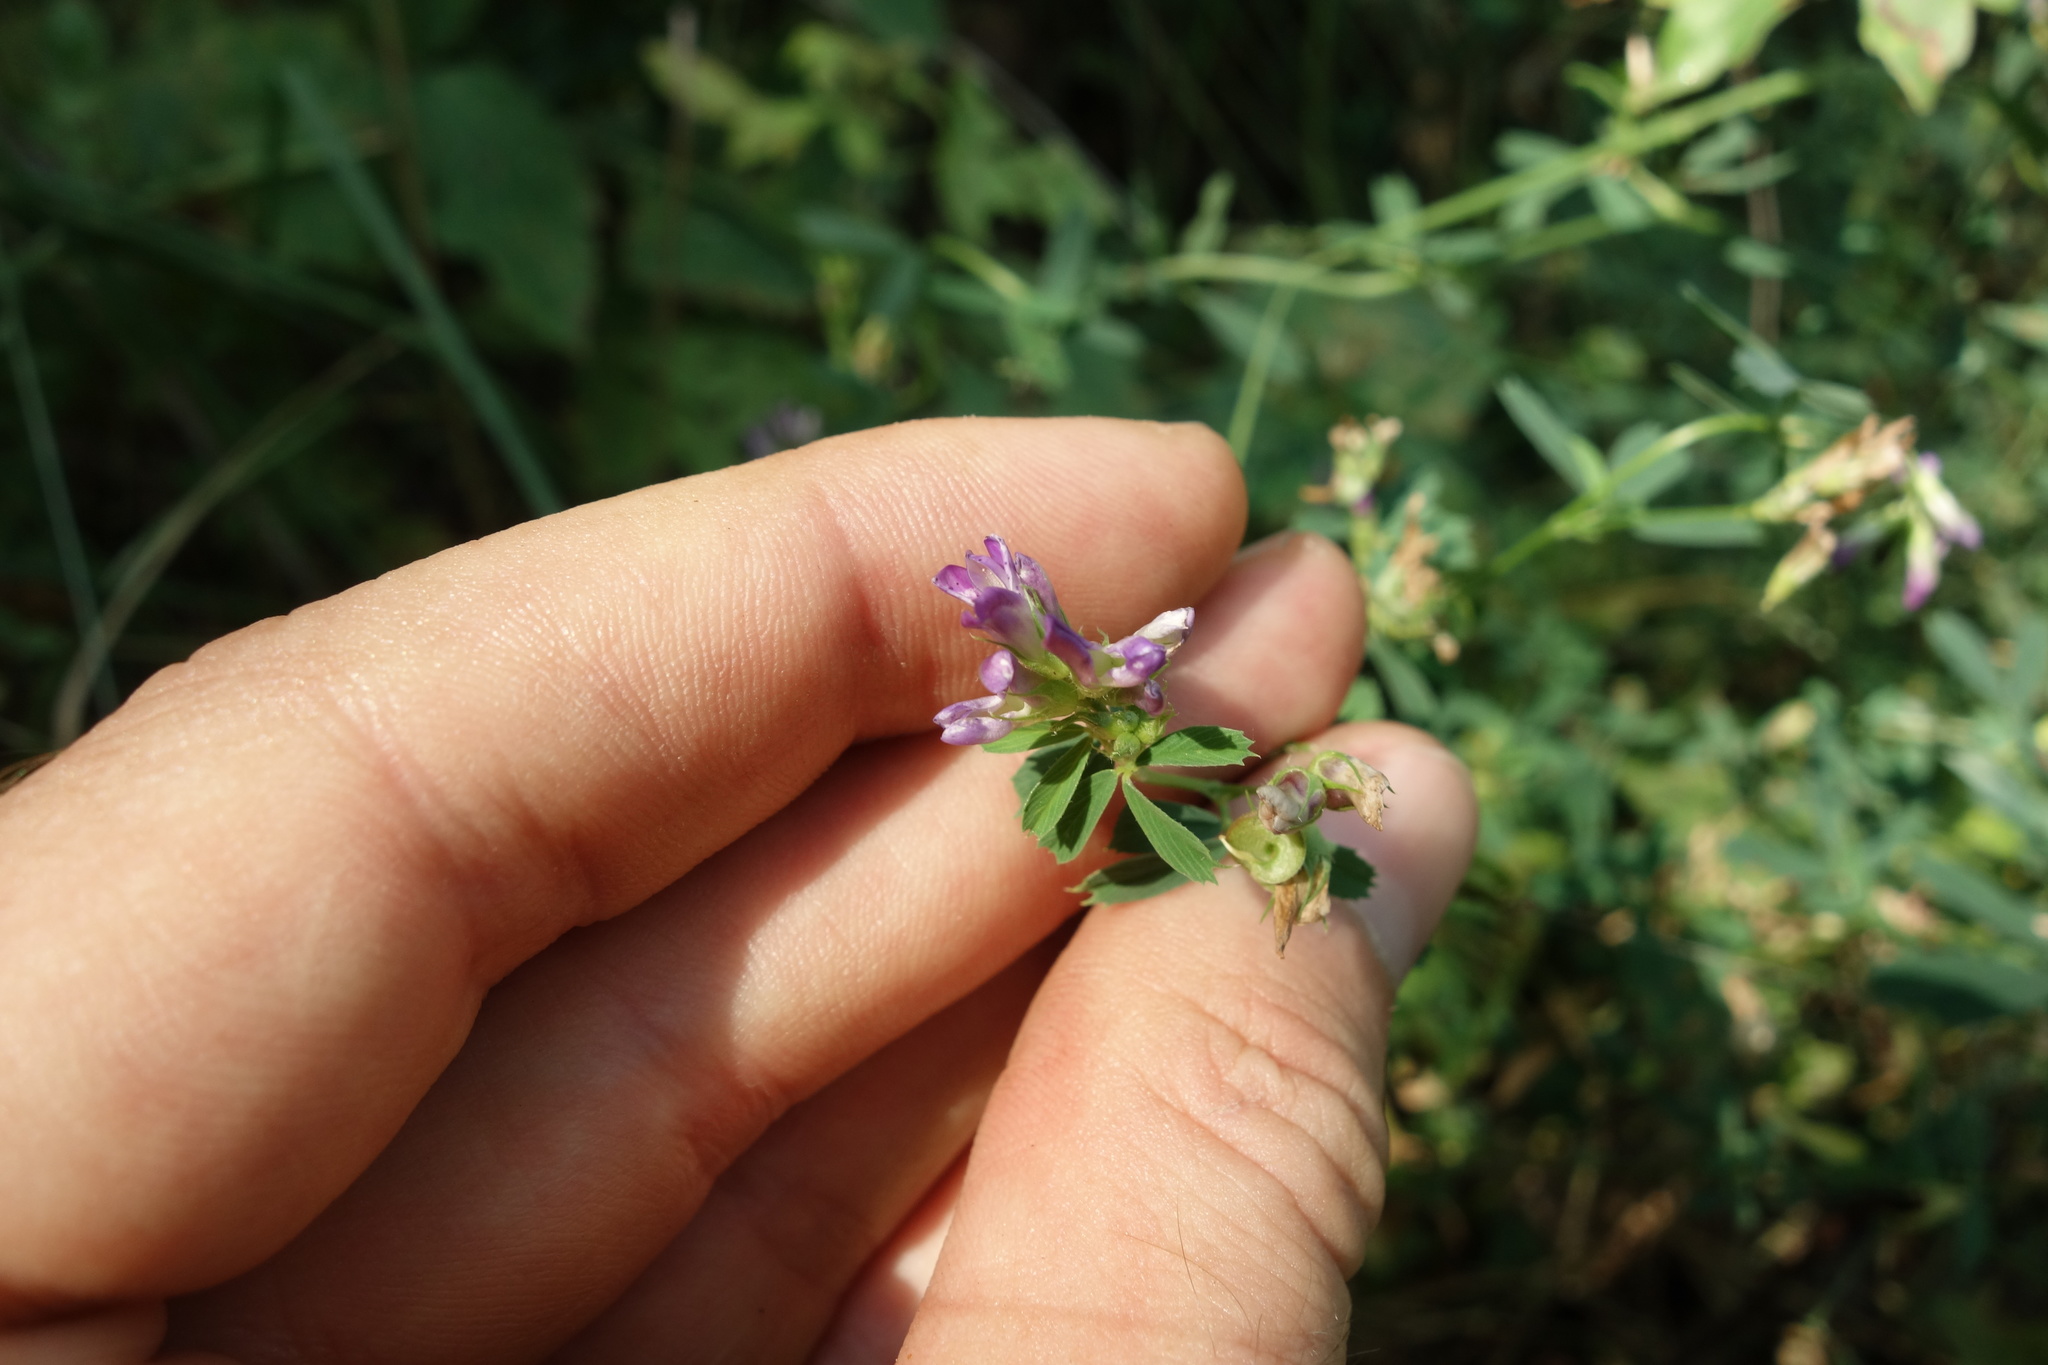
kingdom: Plantae
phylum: Tracheophyta
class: Magnoliopsida
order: Fabales
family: Fabaceae
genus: Medicago
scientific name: Medicago sativa
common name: Alfalfa
